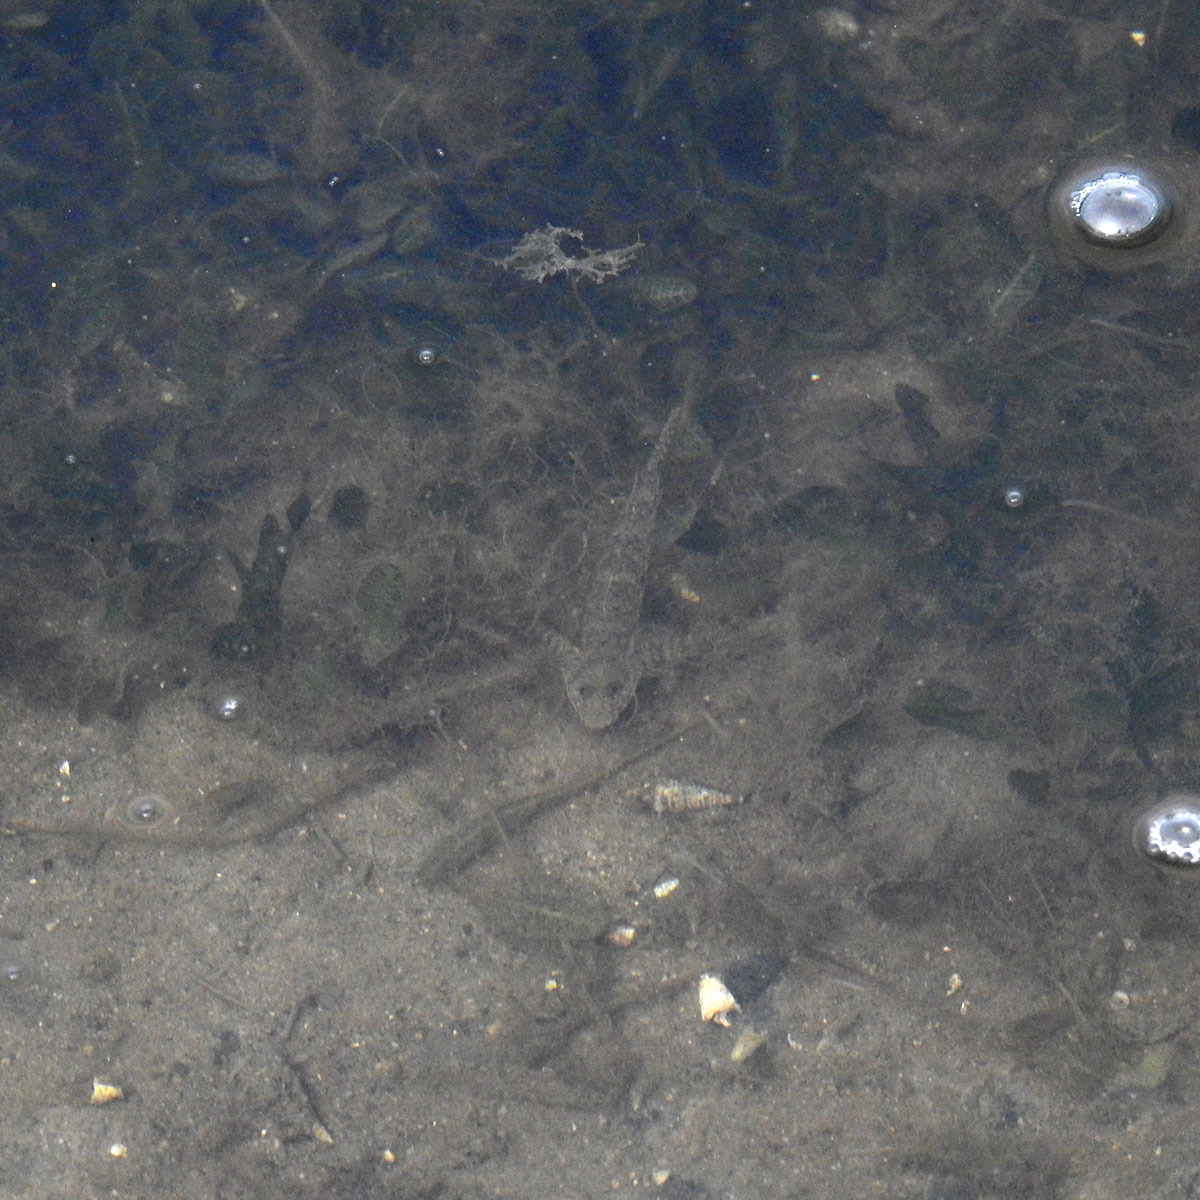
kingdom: Animalia
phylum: Chordata
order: Perciformes
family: Gobiidae
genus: Favonigobius
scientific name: Favonigobius reichei
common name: Tropical sand goby
